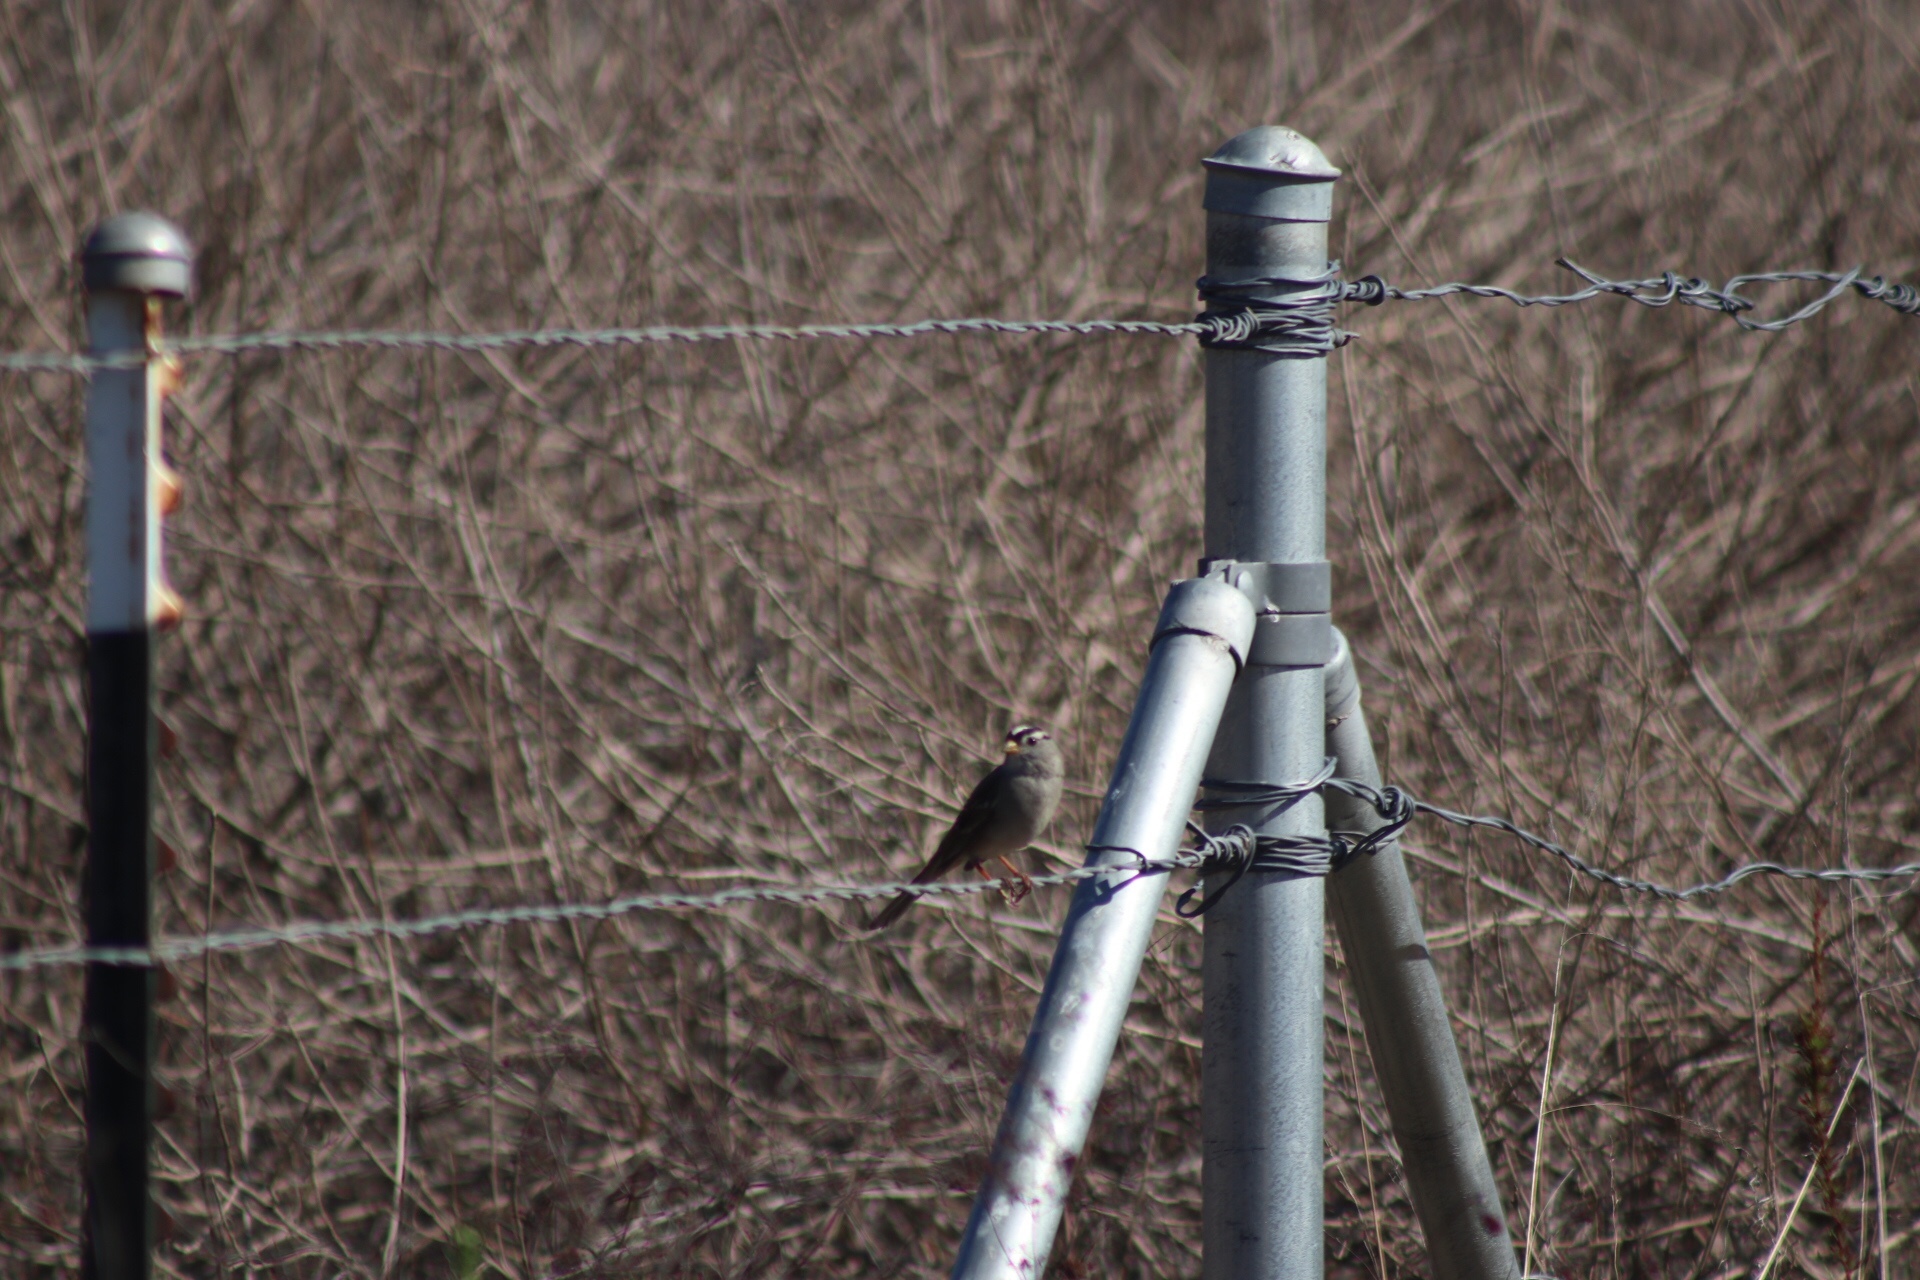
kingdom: Animalia
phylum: Chordata
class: Aves
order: Passeriformes
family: Passerellidae
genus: Zonotrichia
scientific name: Zonotrichia leucophrys
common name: White-crowned sparrow
